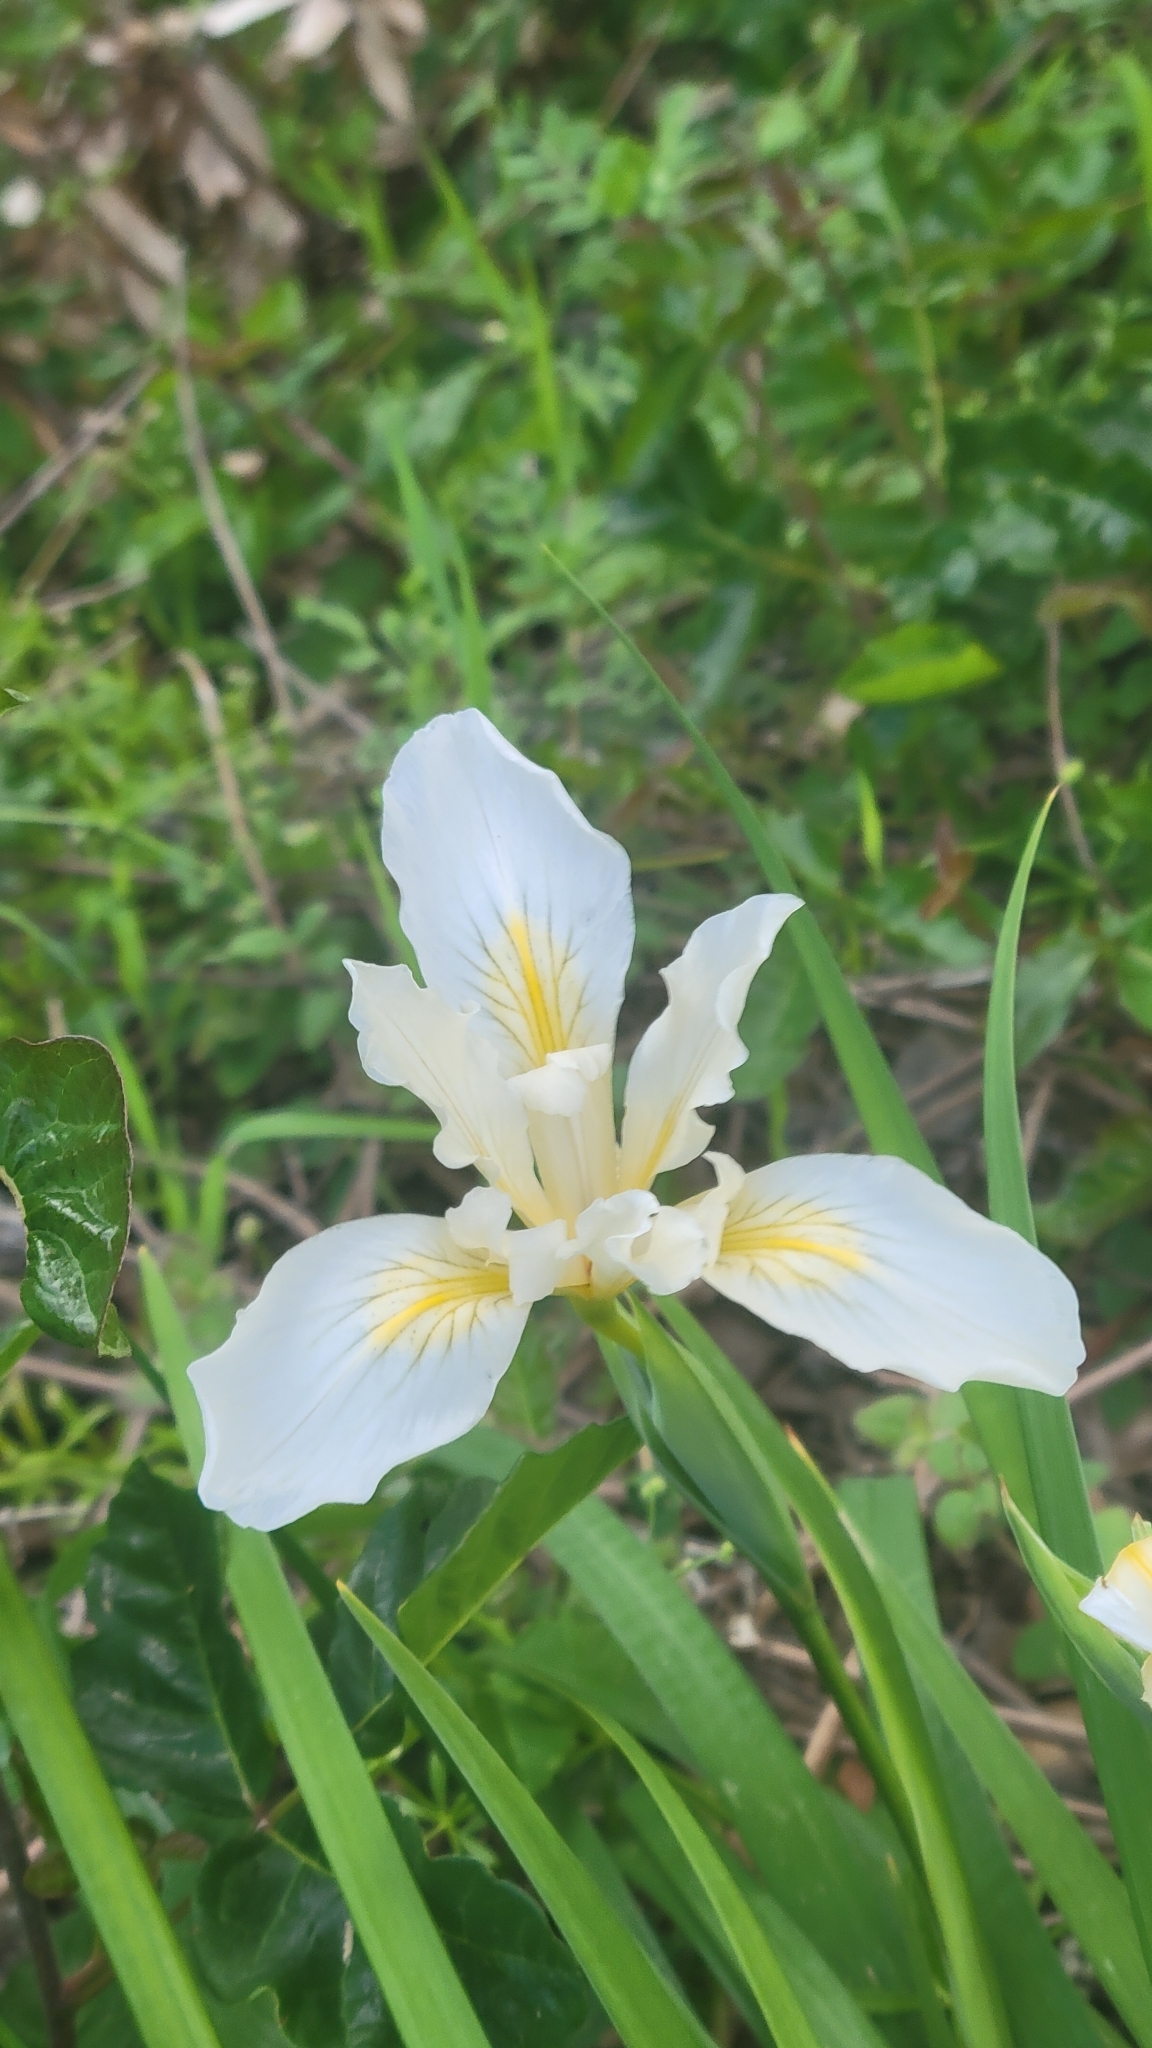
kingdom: Plantae
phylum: Tracheophyta
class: Liliopsida
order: Asparagales
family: Iridaceae
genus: Iris
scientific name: Iris douglasiana
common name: Marin iris
